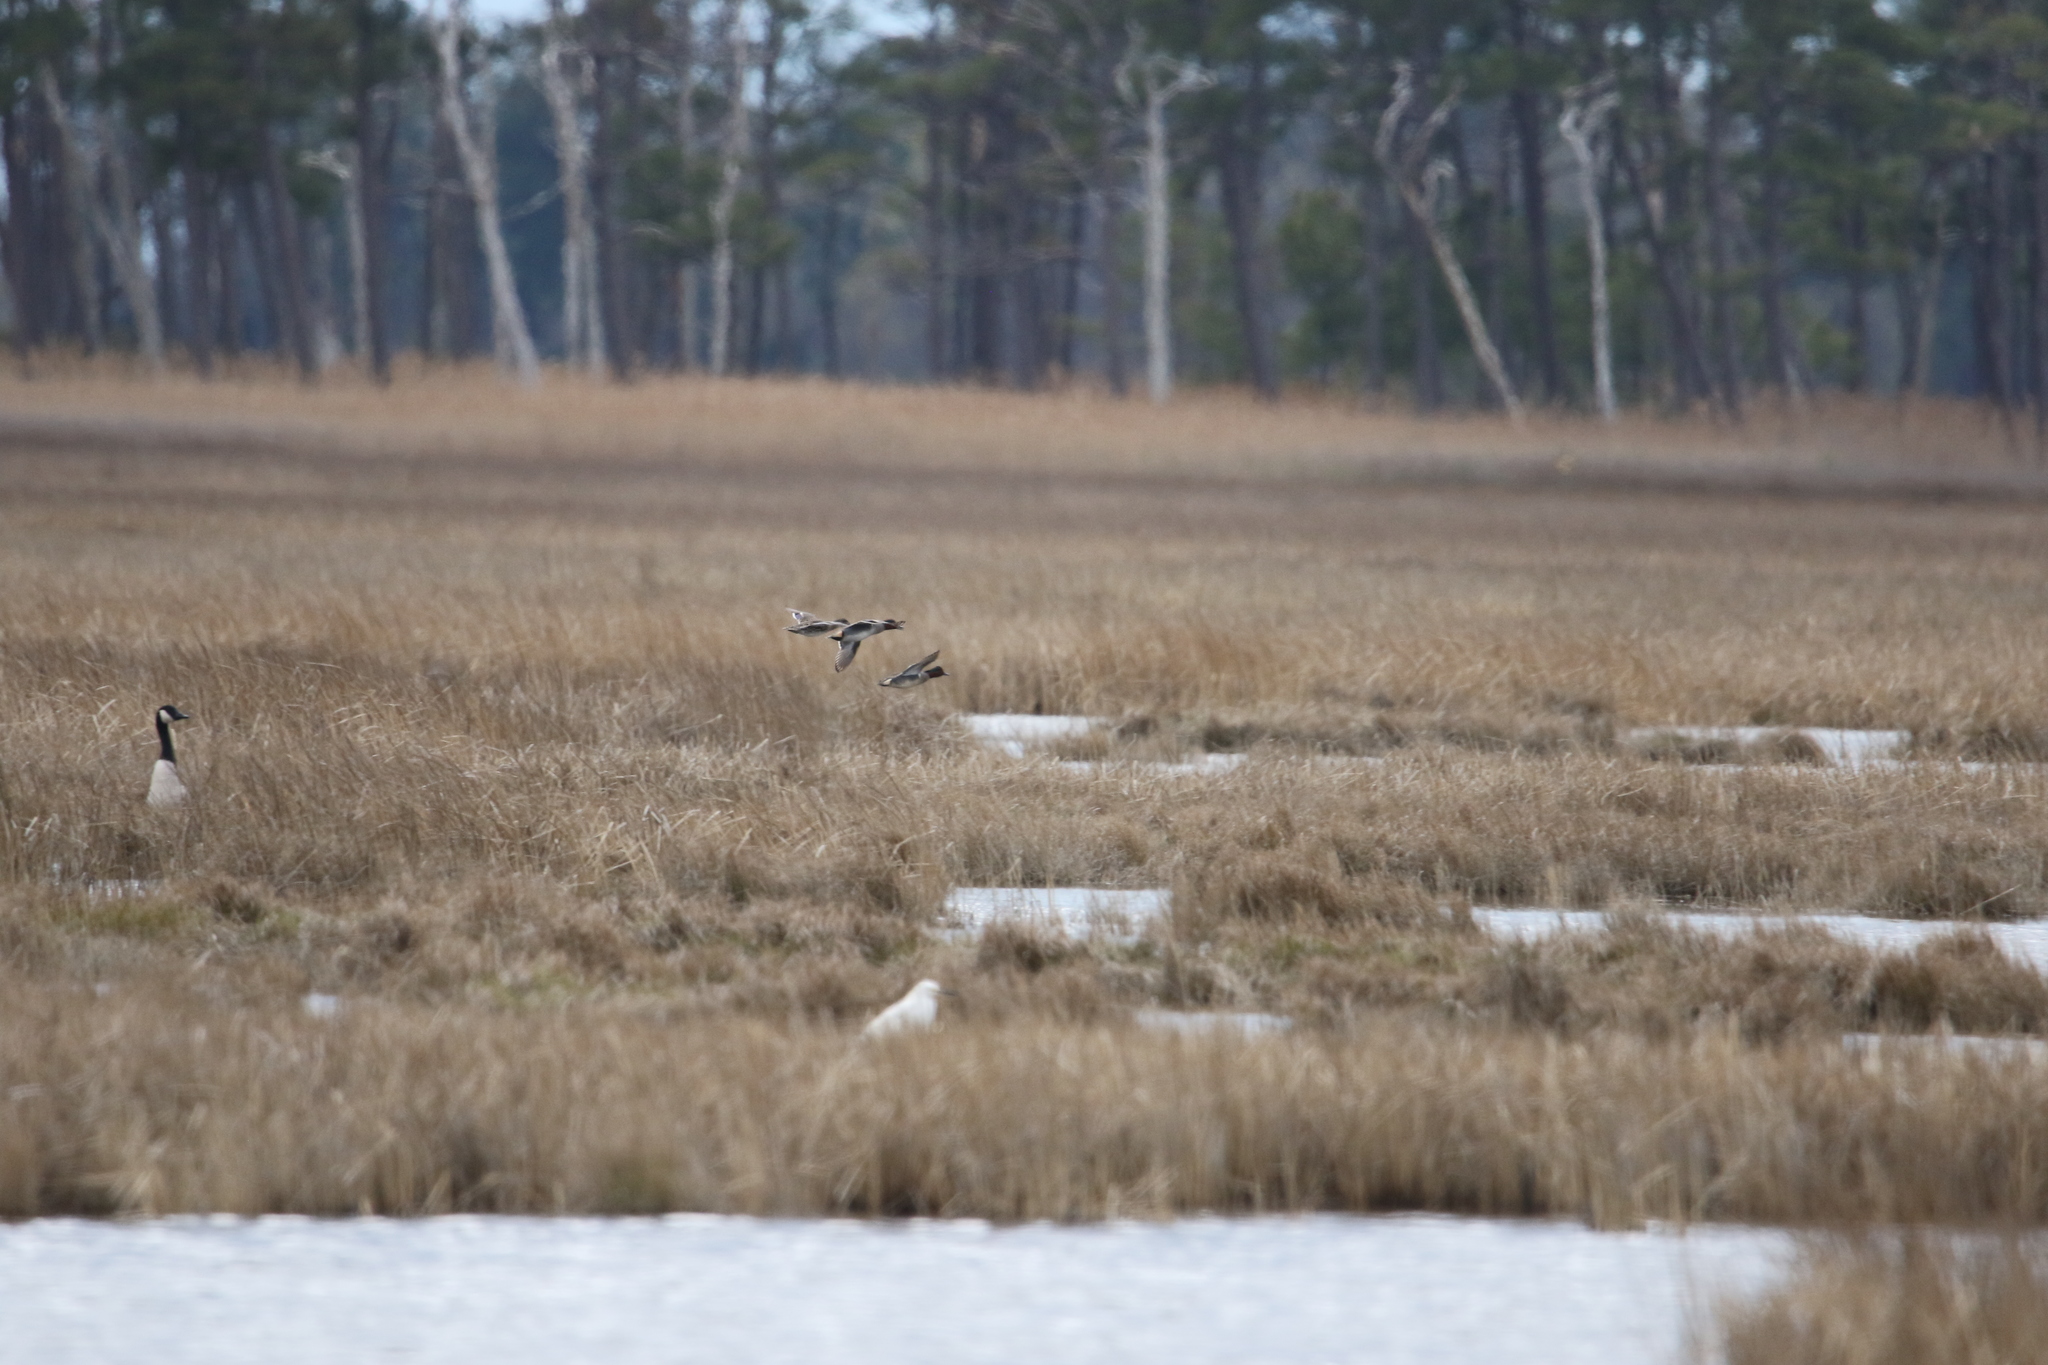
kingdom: Animalia
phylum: Chordata
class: Aves
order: Anseriformes
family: Anatidae
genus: Anas
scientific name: Anas crecca
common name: Eurasian teal
